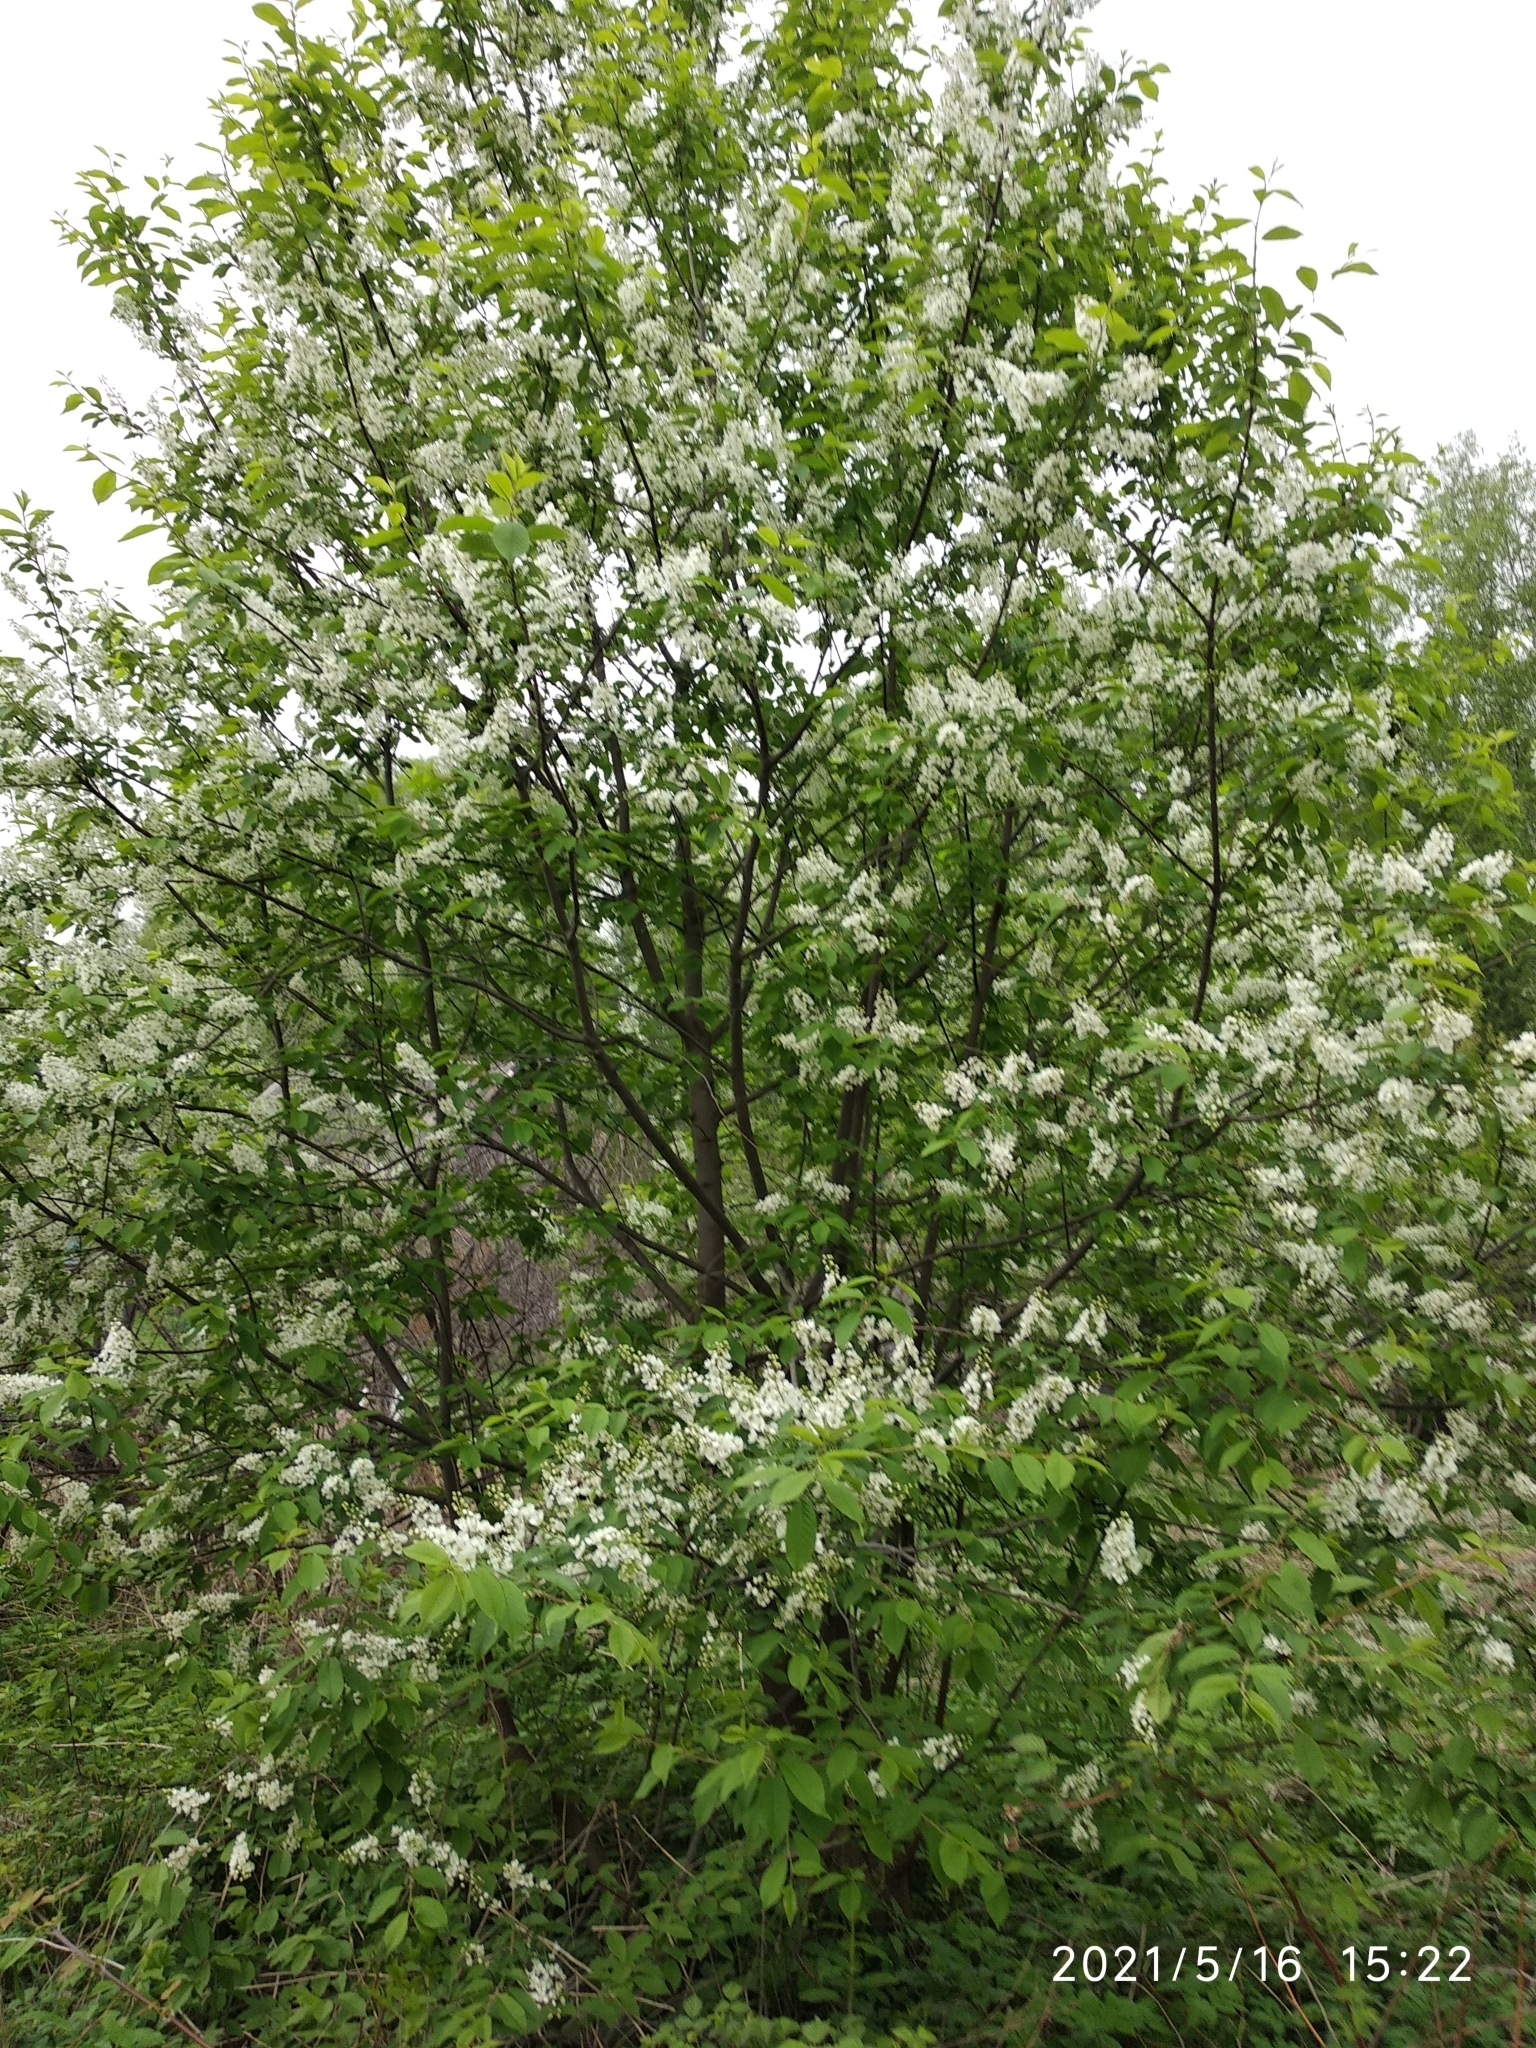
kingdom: Plantae
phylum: Tracheophyta
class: Magnoliopsida
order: Rosales
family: Rosaceae
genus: Prunus
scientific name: Prunus padus
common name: Bird cherry
